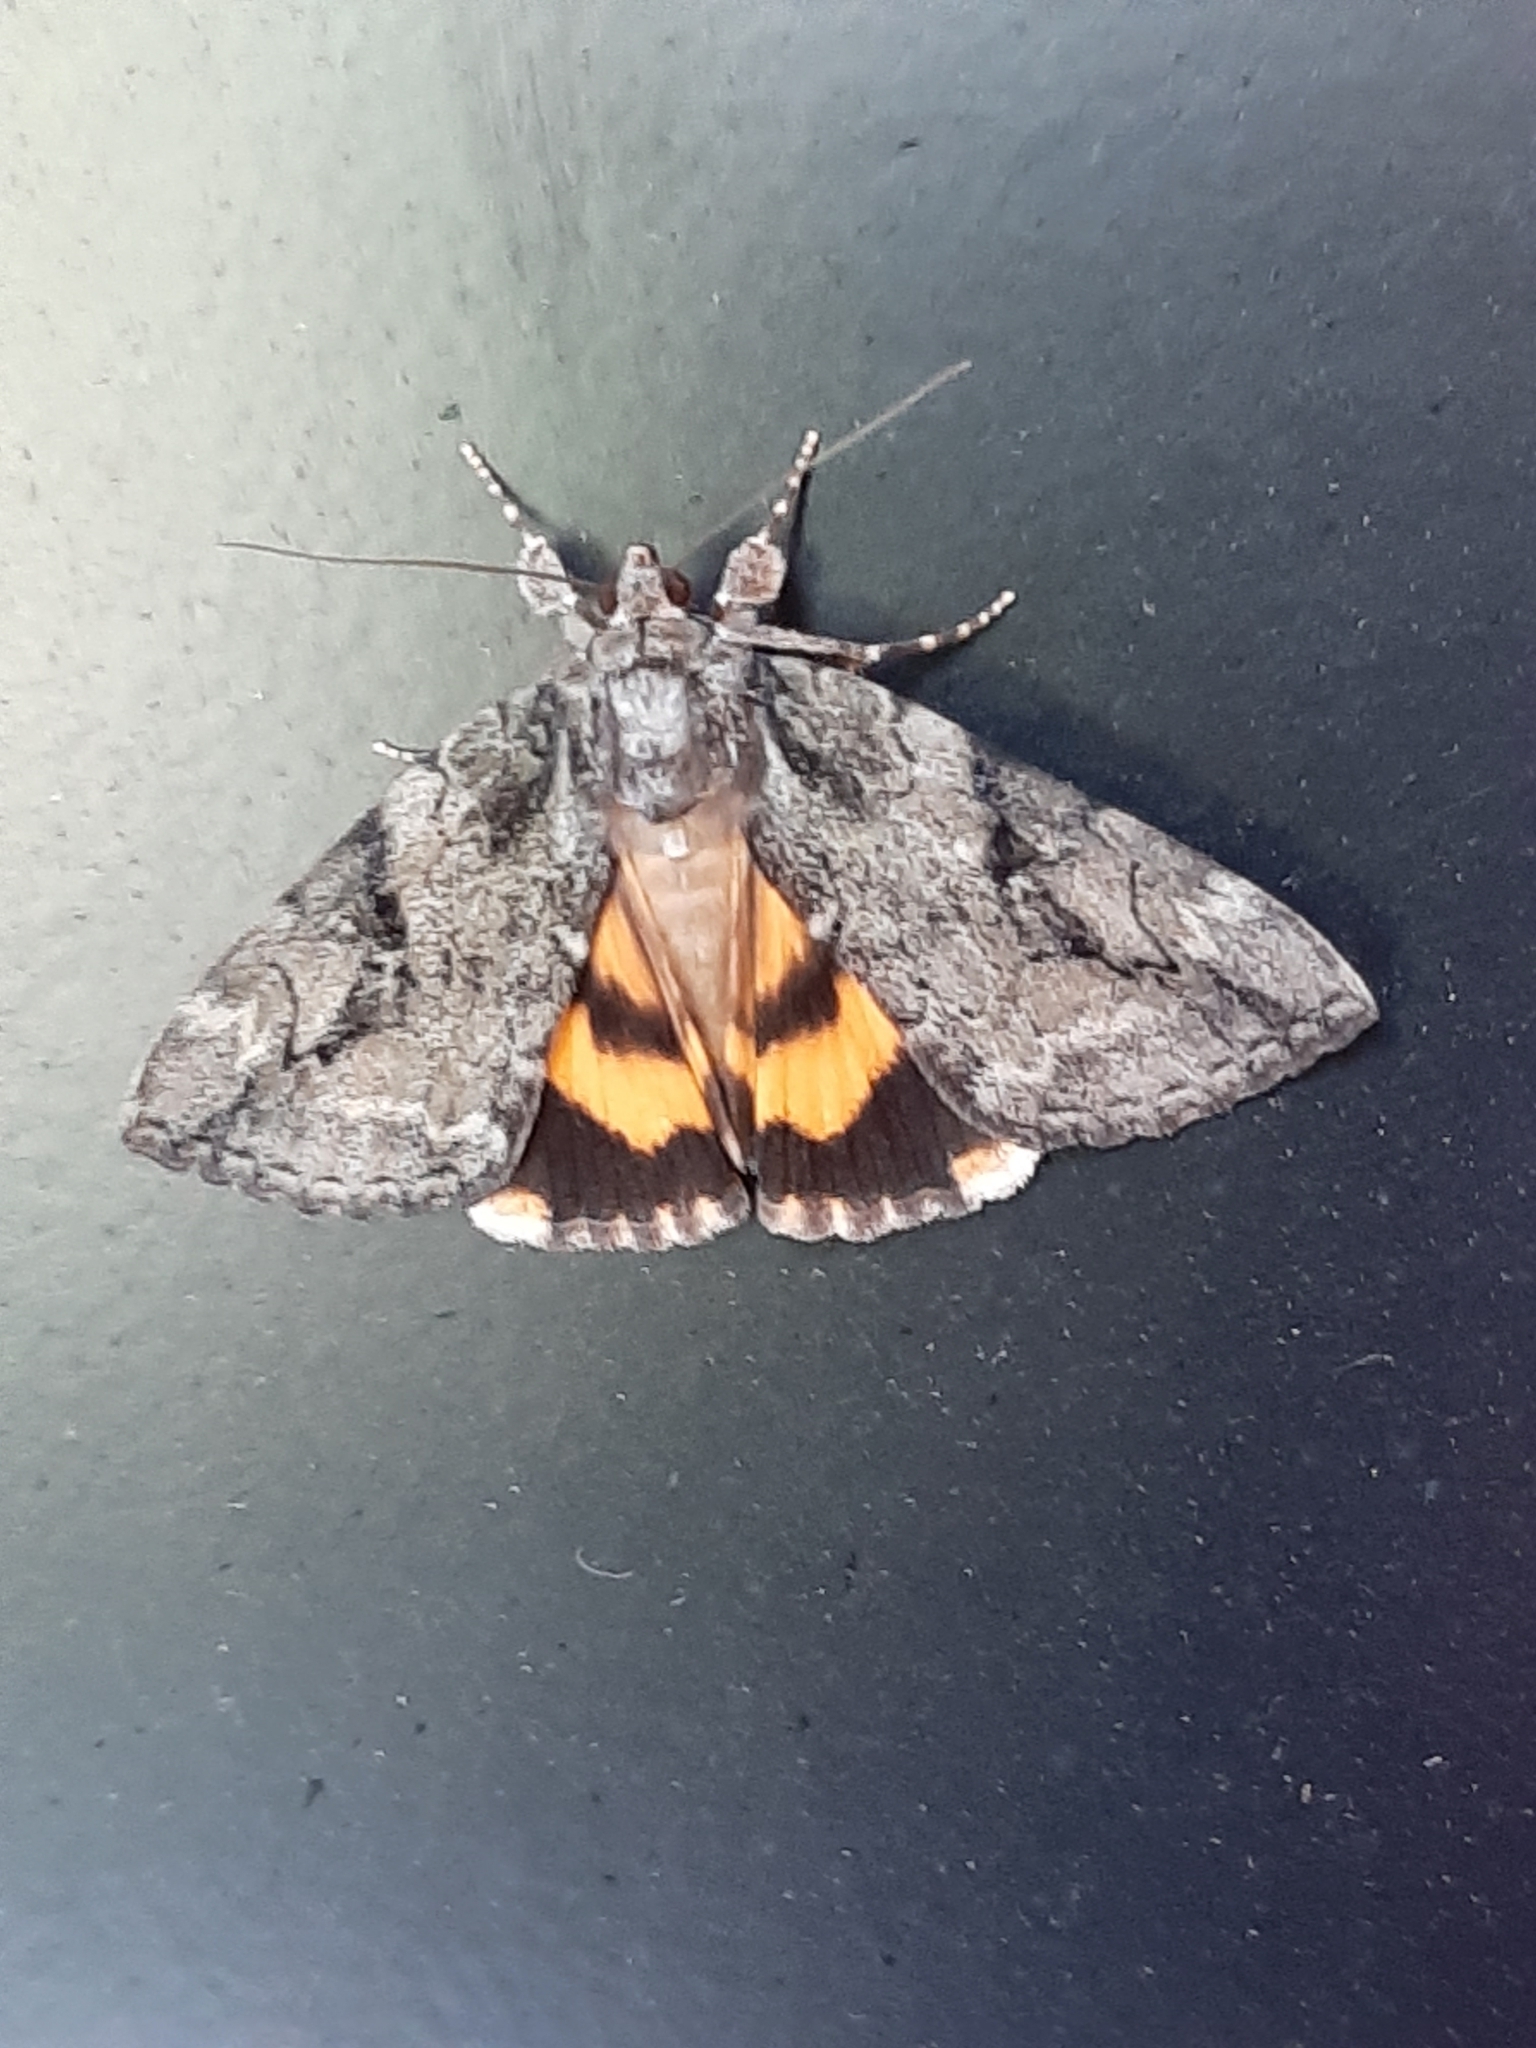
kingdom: Animalia
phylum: Arthropoda
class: Insecta
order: Lepidoptera
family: Erebidae
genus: Catocala
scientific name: Catocala micronympha
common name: Little nymph underwing
